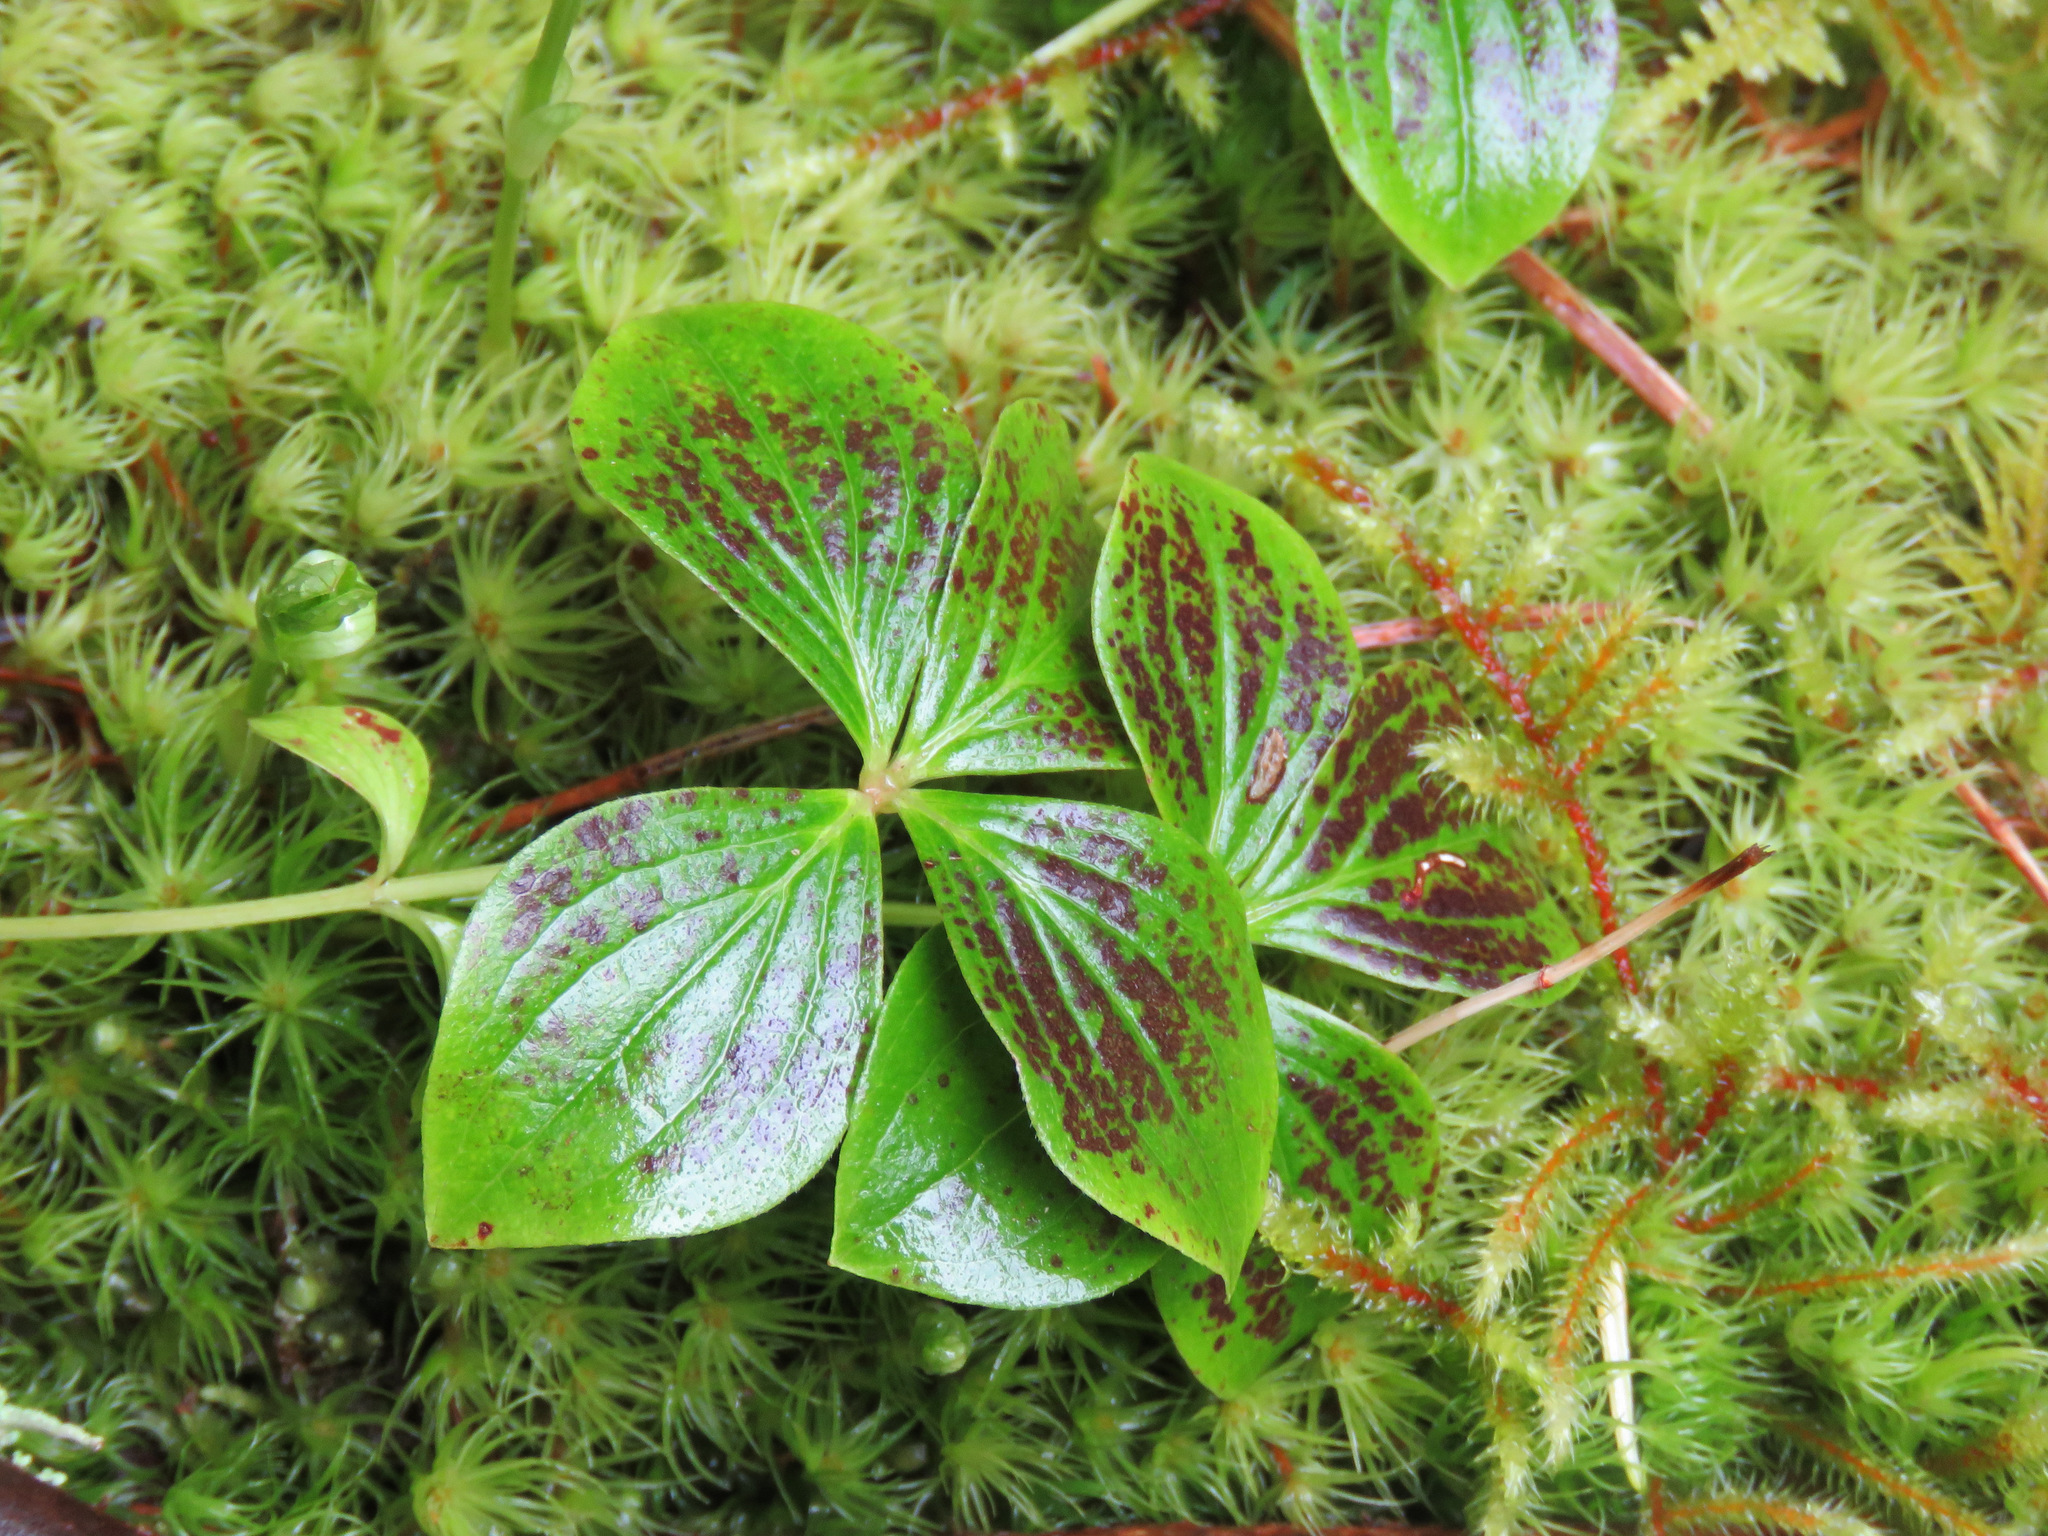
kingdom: Plantae
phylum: Tracheophyta
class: Magnoliopsida
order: Cornales
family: Cornaceae
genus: Cornus
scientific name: Cornus unalaschkensis
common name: Alaska bunchberry
